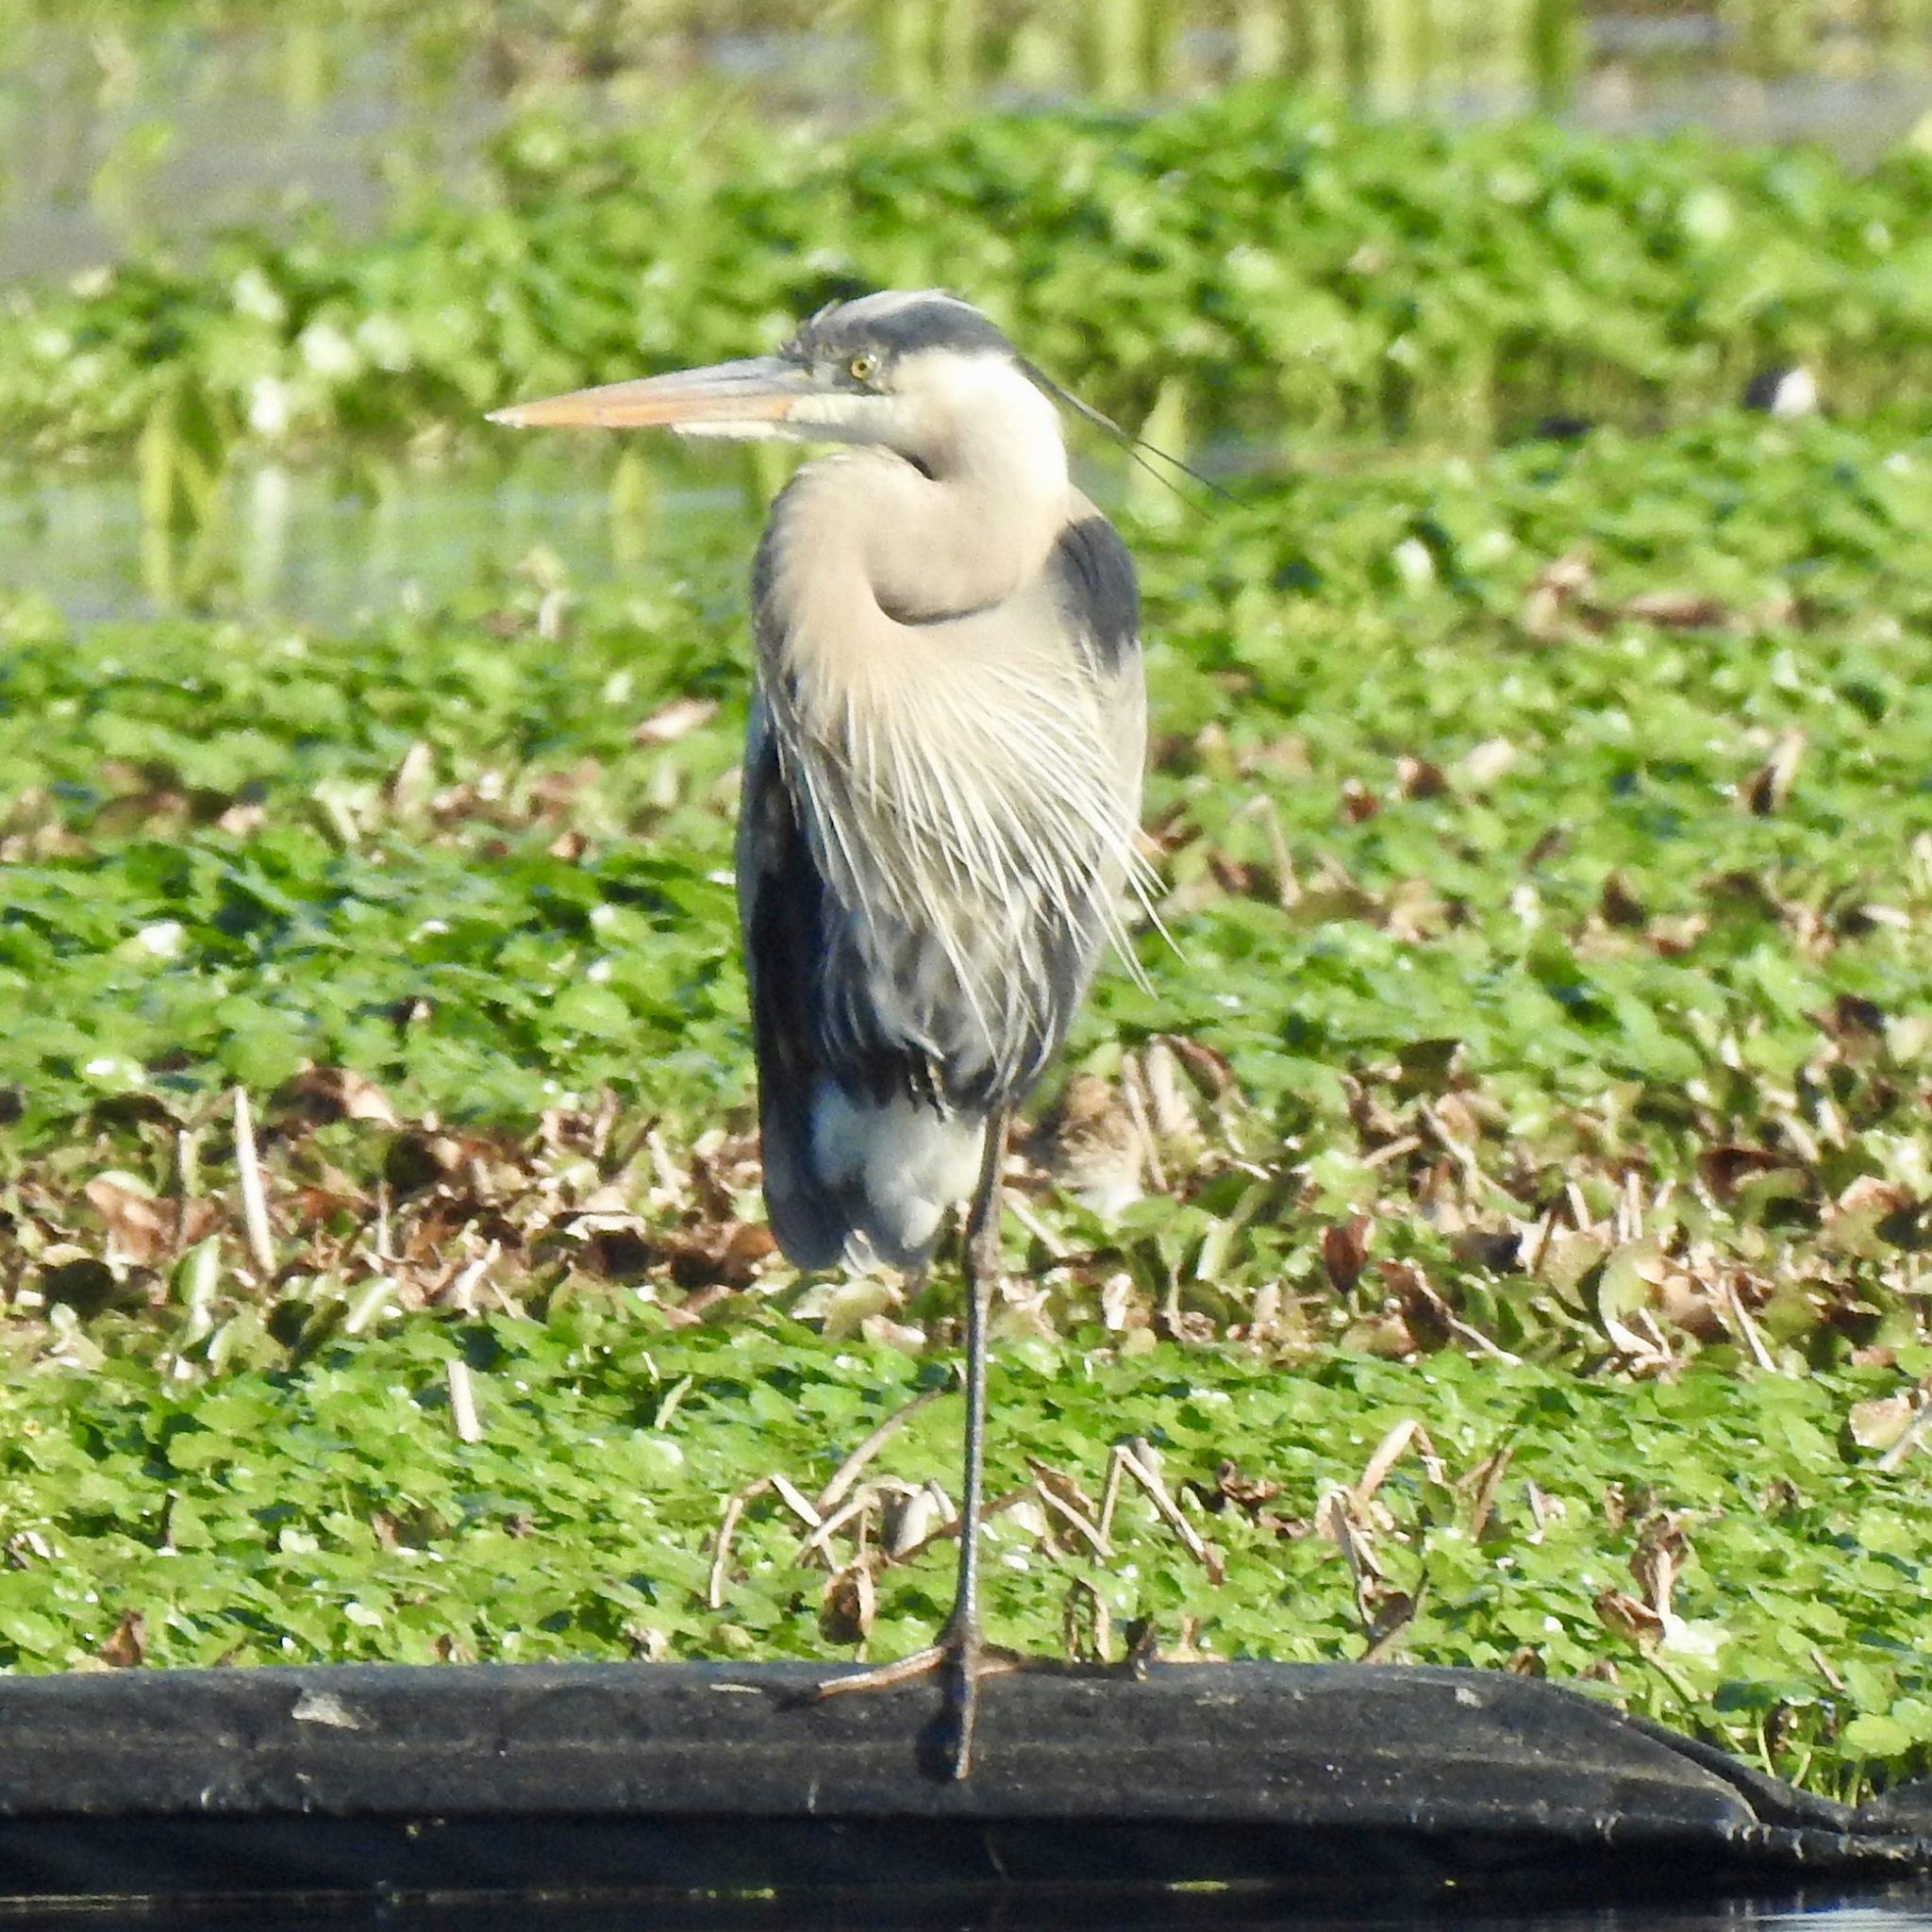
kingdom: Animalia
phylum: Chordata
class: Aves
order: Pelecaniformes
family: Ardeidae
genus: Ardea
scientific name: Ardea herodias
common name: Great blue heron
